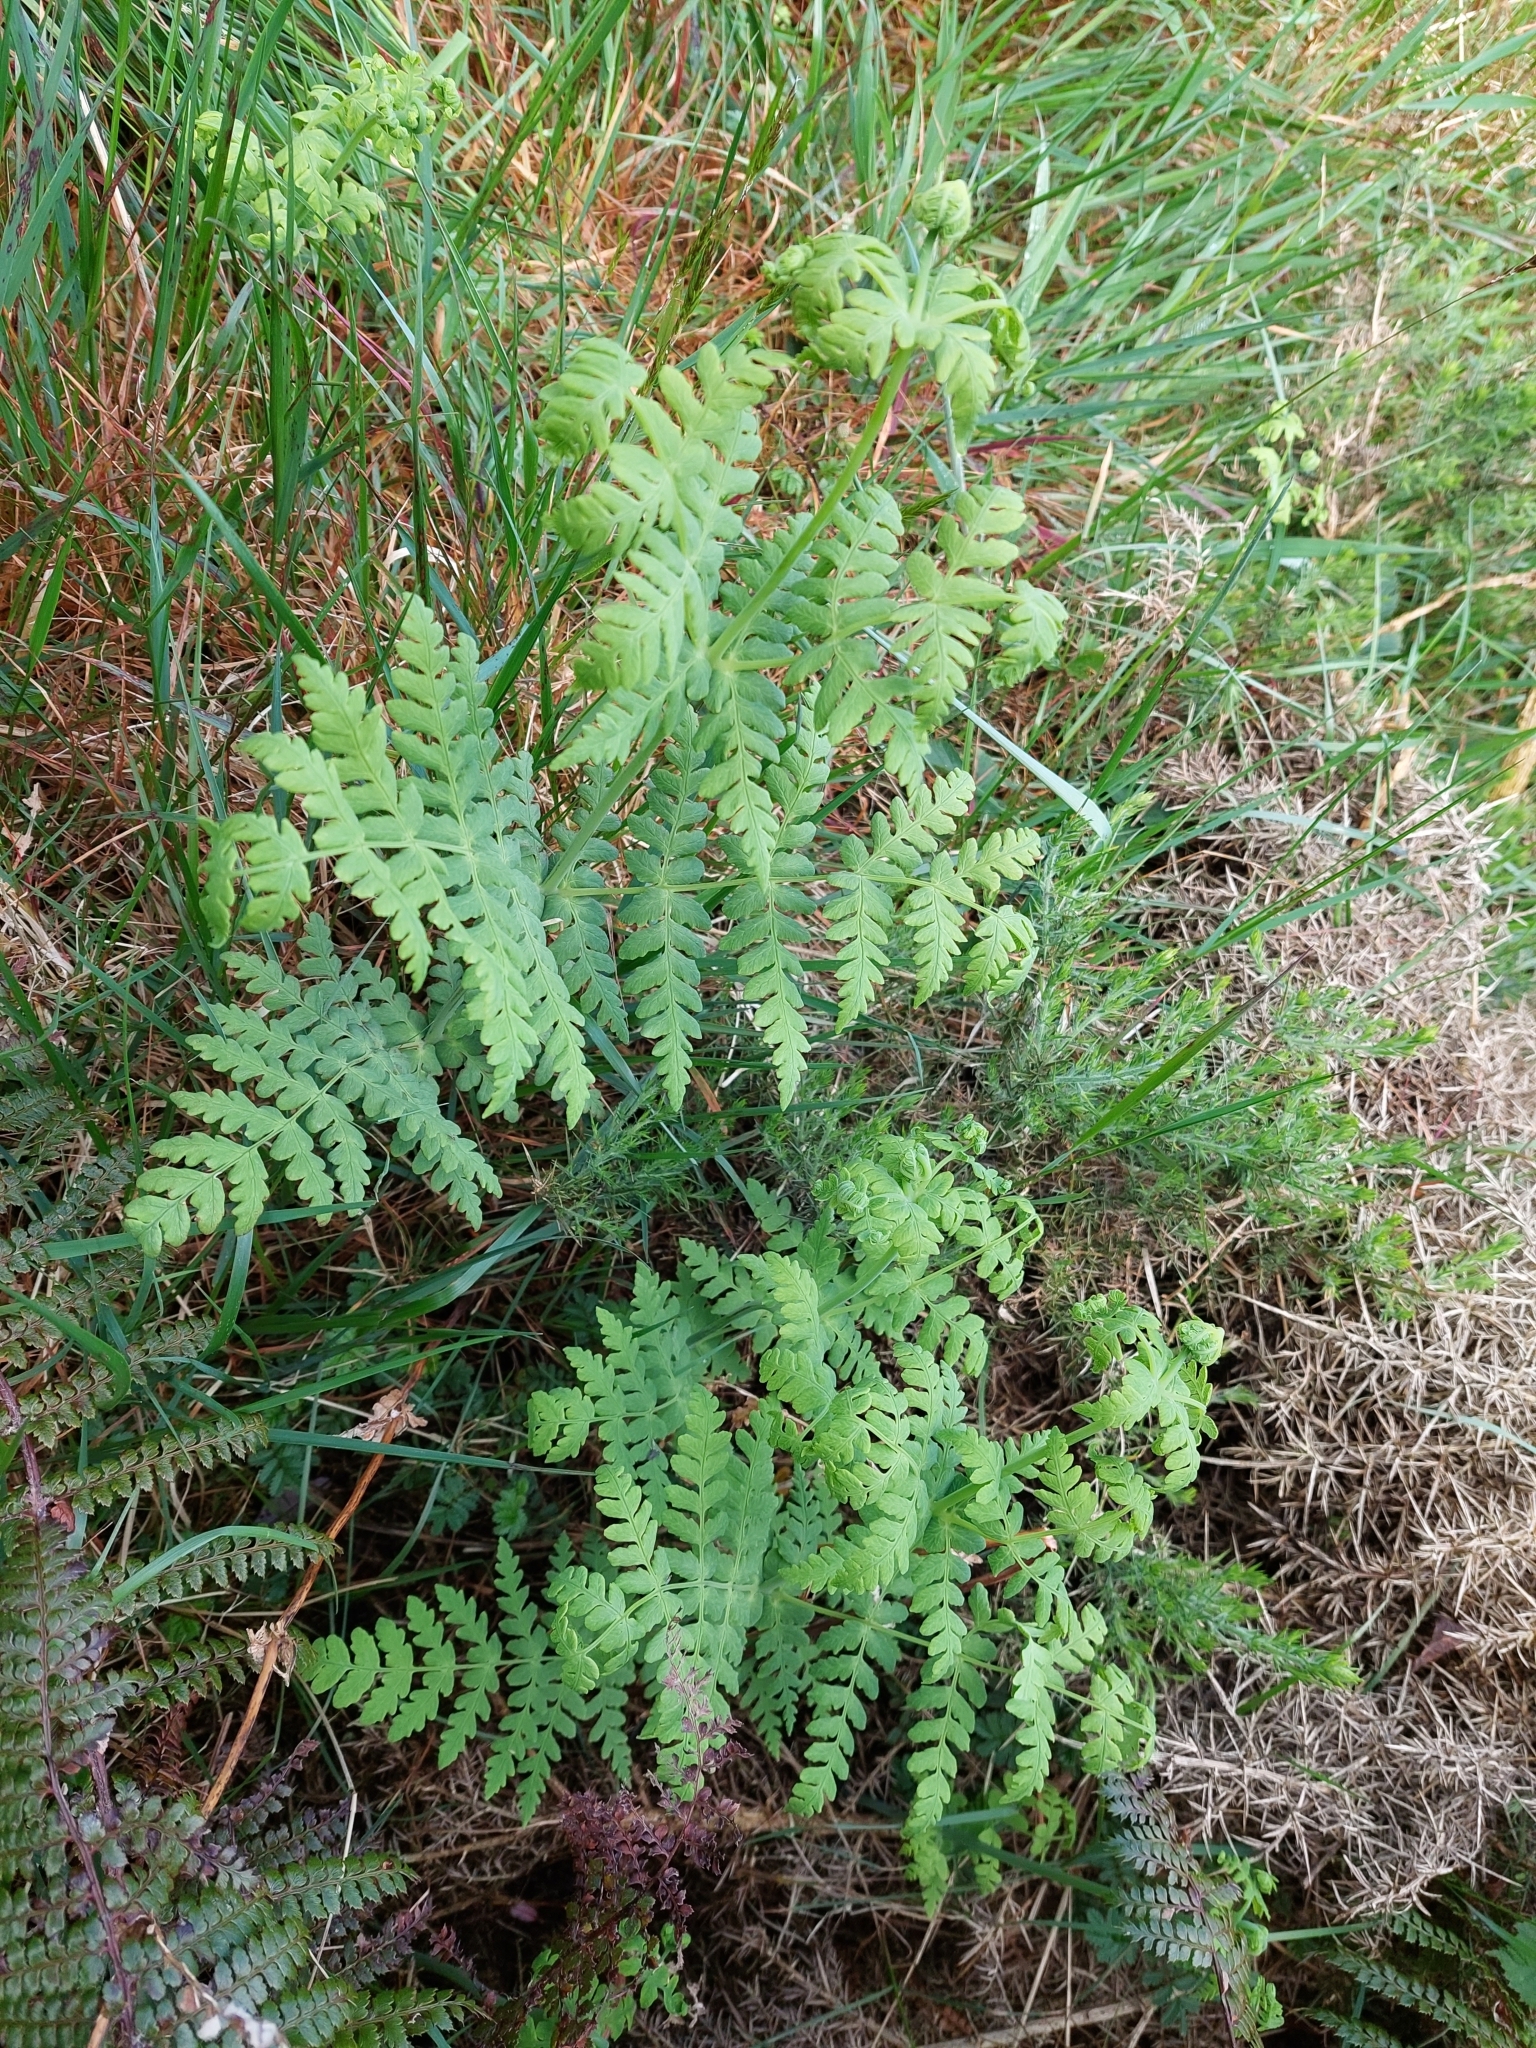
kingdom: Plantae
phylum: Tracheophyta
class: Polypodiopsida
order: Polypodiales
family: Dennstaedtiaceae
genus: Histiopteris
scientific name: Histiopteris incisa
